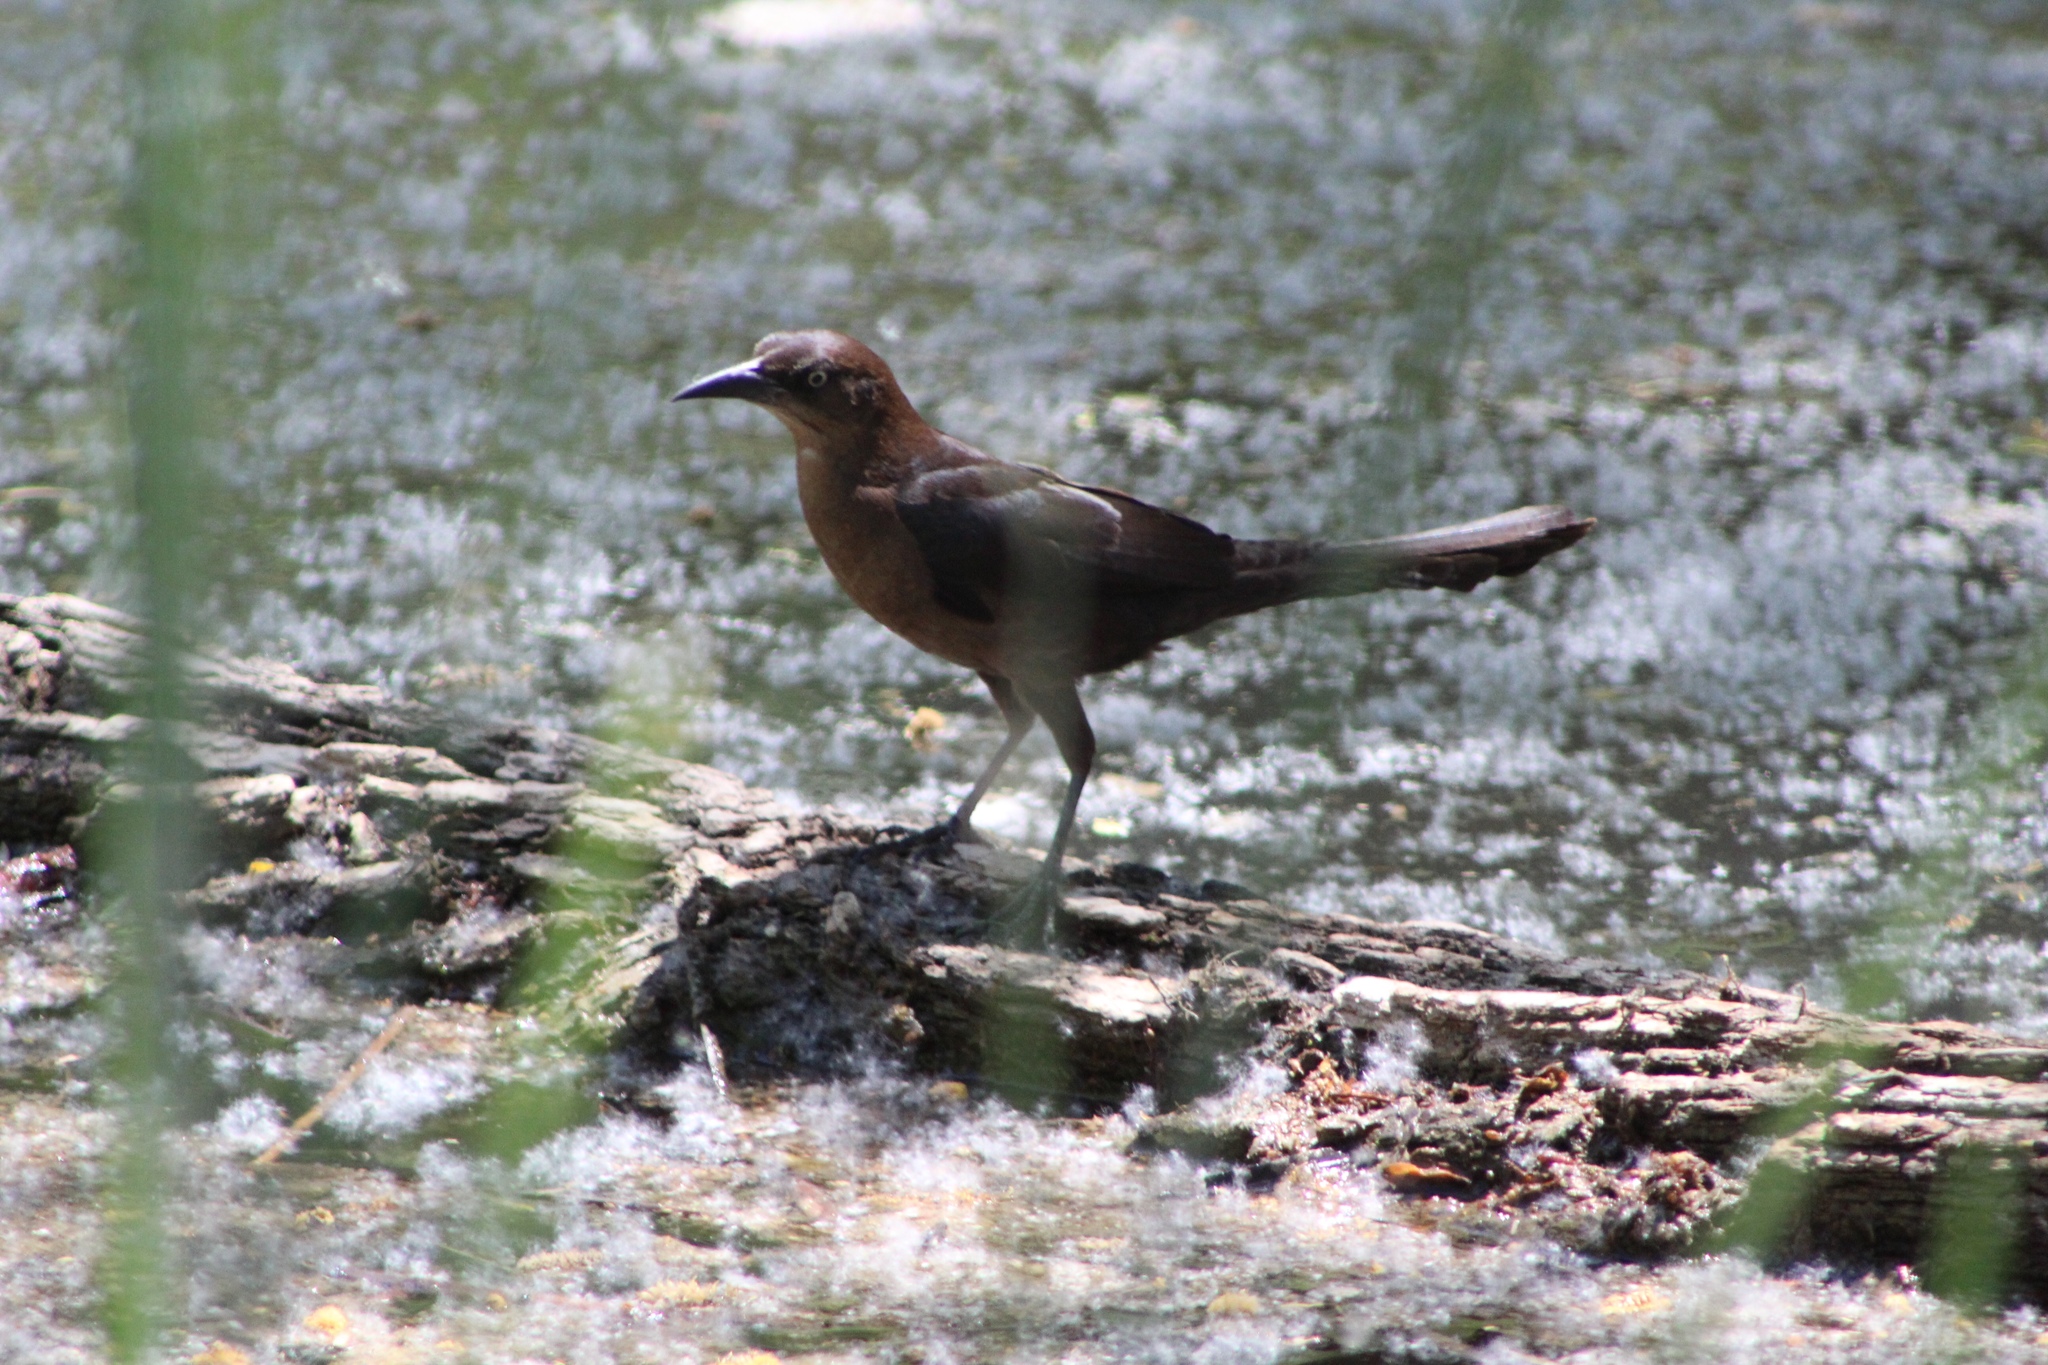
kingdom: Animalia
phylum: Chordata
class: Aves
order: Passeriformes
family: Icteridae
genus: Quiscalus
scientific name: Quiscalus mexicanus
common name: Great-tailed grackle
